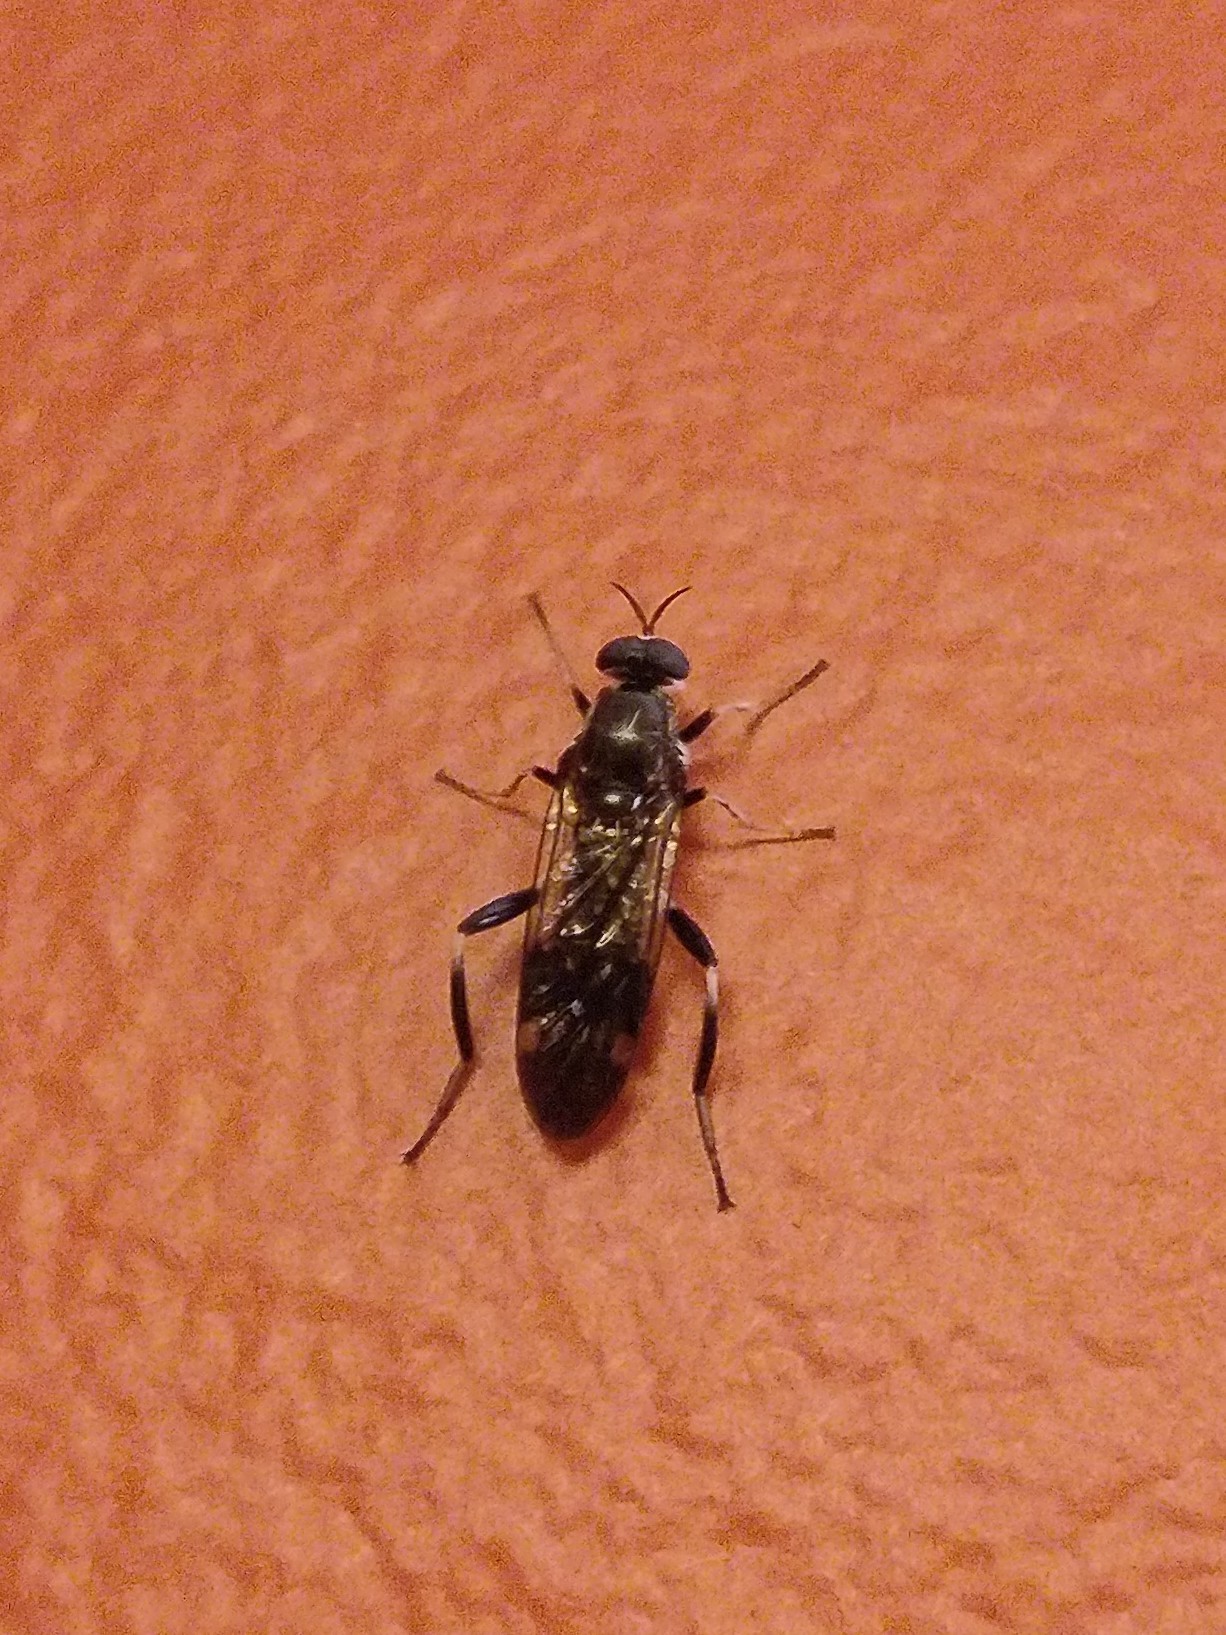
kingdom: Animalia
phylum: Arthropoda
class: Insecta
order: Diptera
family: Stratiomyidae
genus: Exaireta
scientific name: Exaireta spinigera
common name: Blue soldier fly
